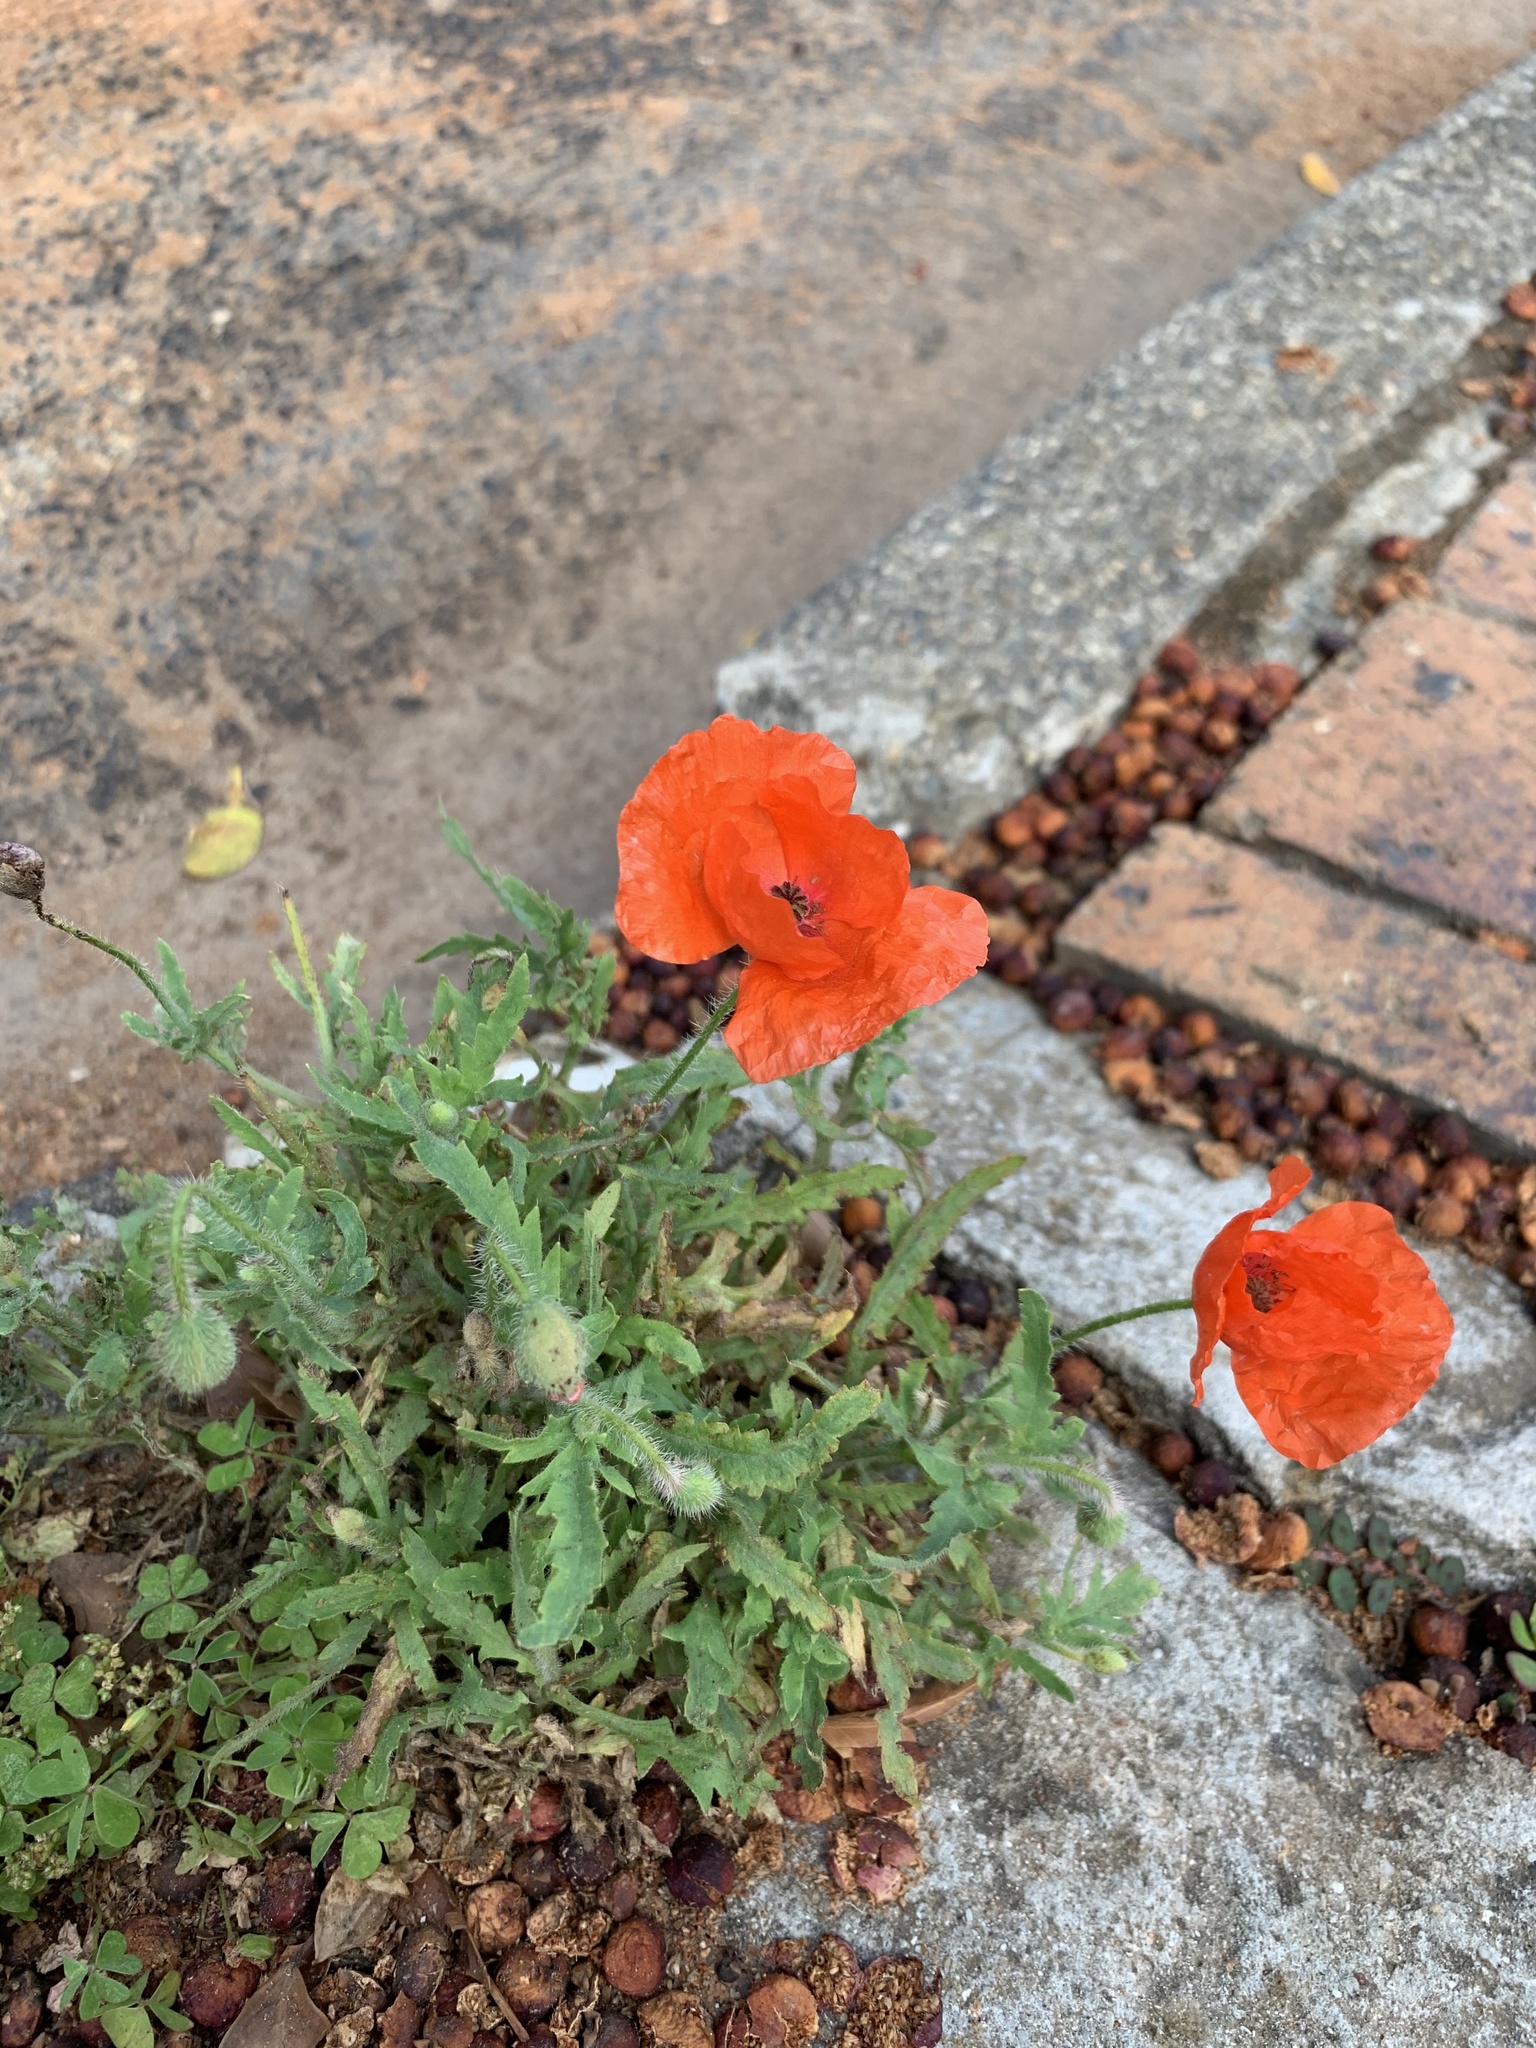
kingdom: Plantae
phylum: Tracheophyta
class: Magnoliopsida
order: Ranunculales
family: Papaveraceae
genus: Papaver
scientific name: Papaver rhoeas
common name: Corn poppy
